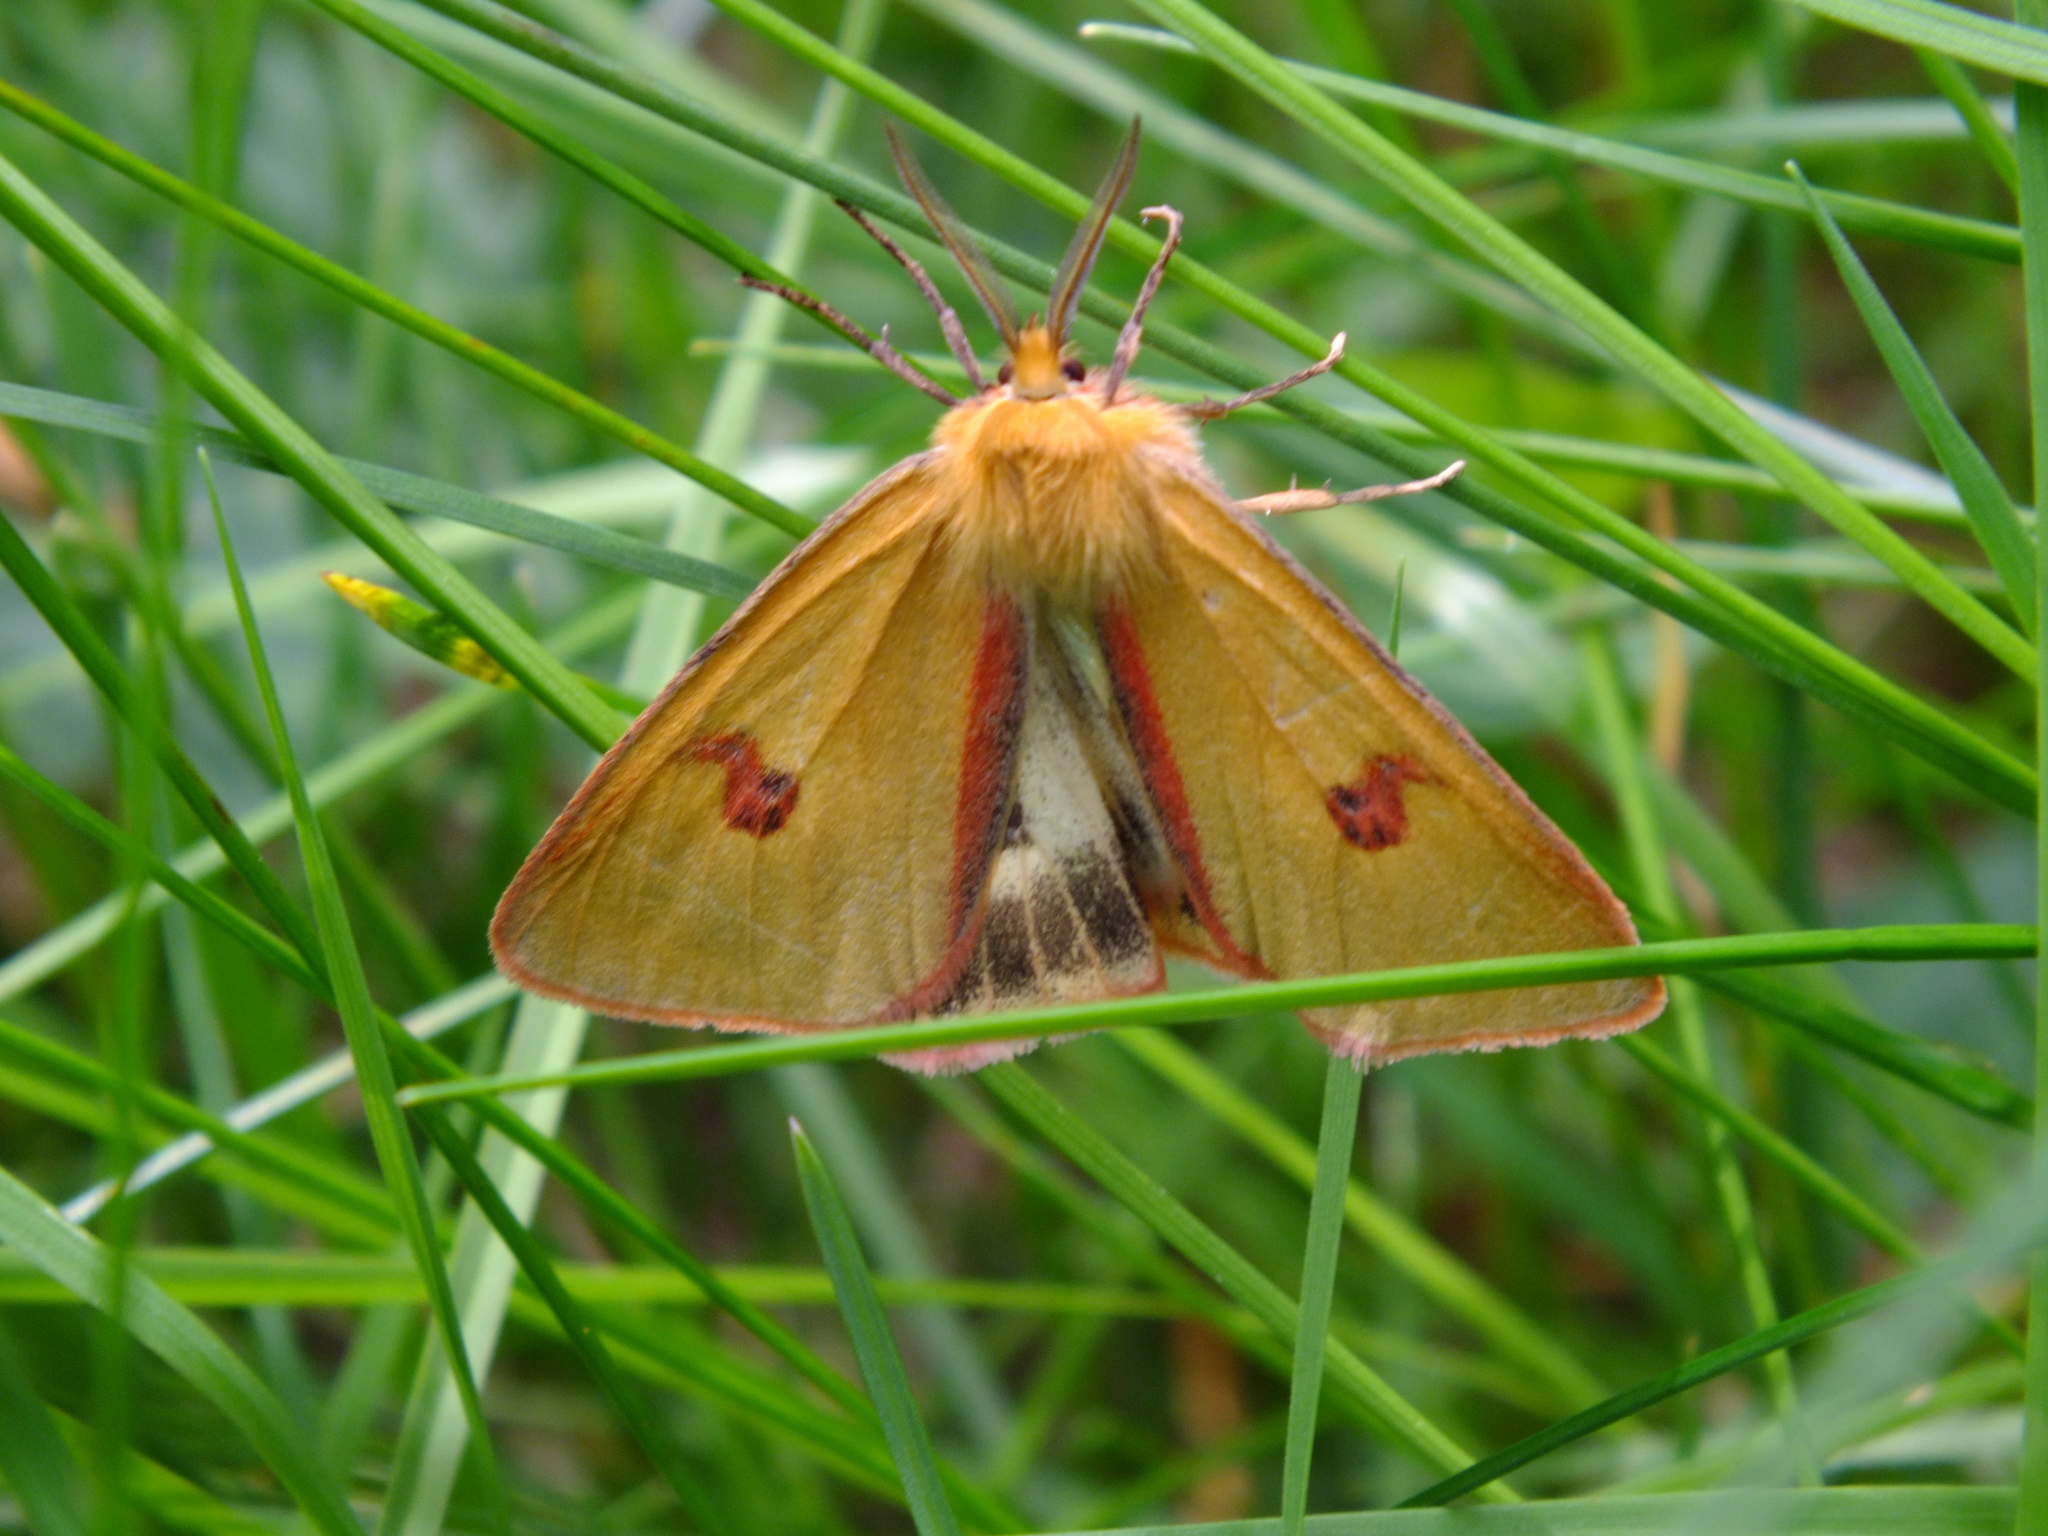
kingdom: Animalia
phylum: Arthropoda
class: Insecta
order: Lepidoptera
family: Erebidae
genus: Diacrisia
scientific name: Diacrisia sannio
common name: Clouded buff
